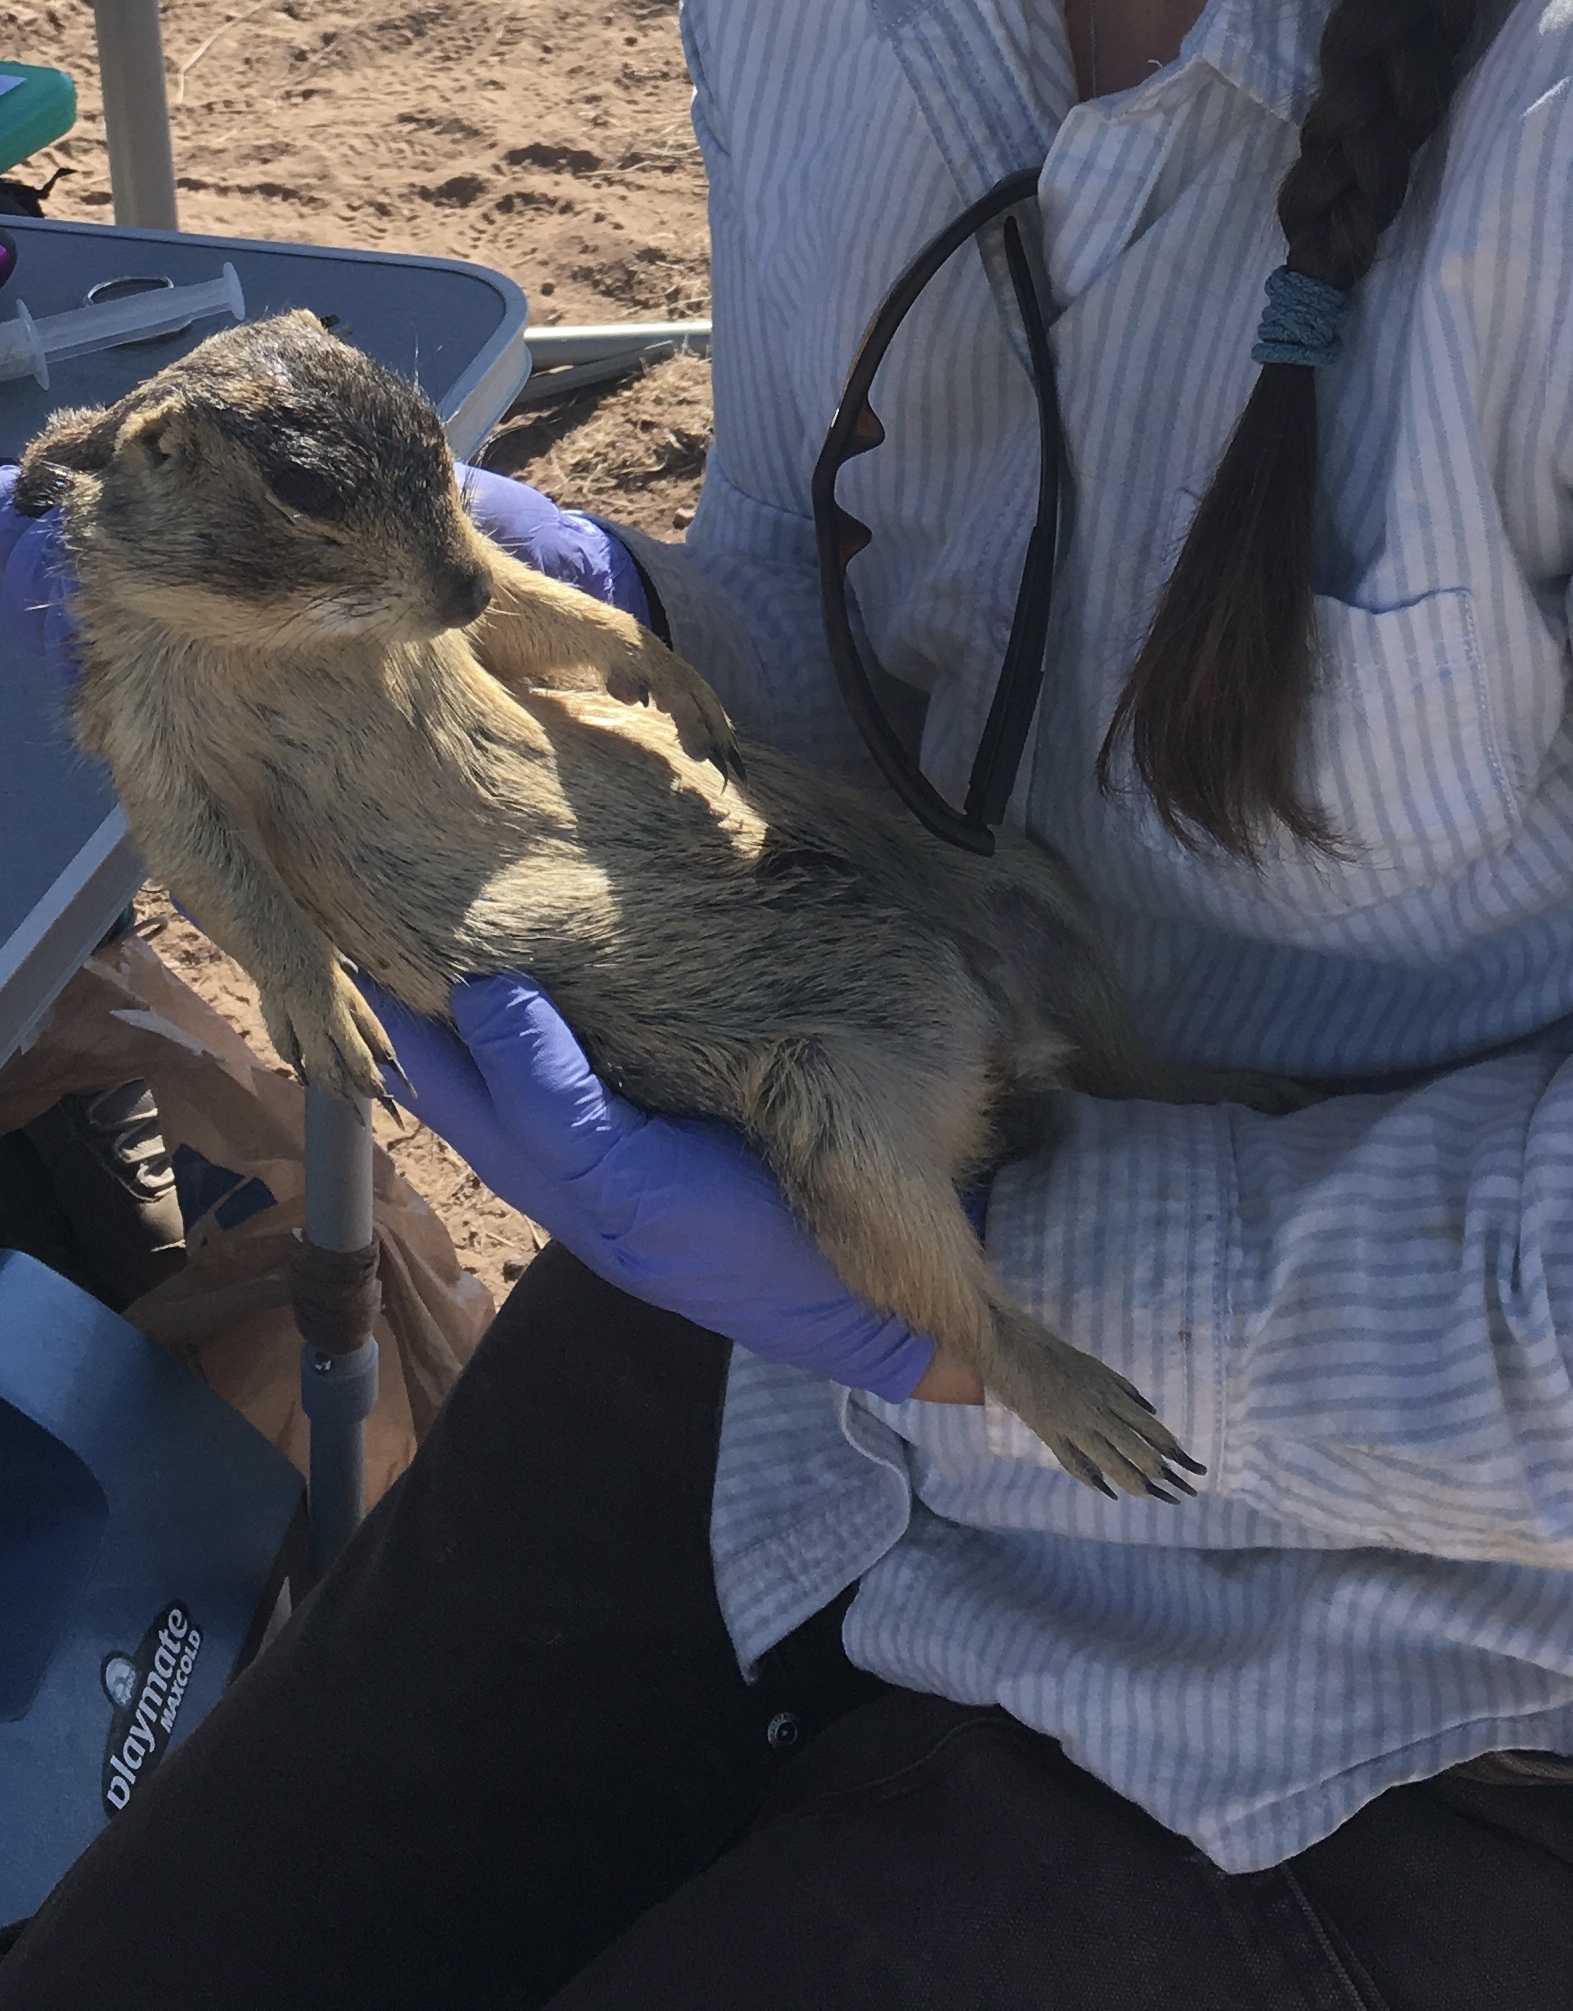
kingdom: Animalia
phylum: Chordata
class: Mammalia
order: Rodentia
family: Sciuridae
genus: Cynomys
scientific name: Cynomys gunnisoni
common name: Gunnison's prairie dog
